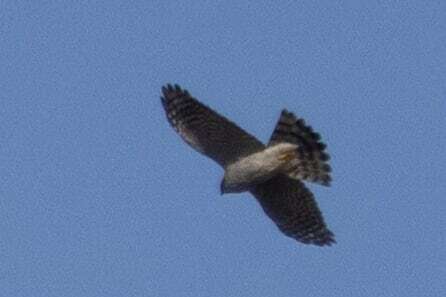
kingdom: Animalia
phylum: Chordata
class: Aves
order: Accipitriformes
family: Accipitridae
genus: Accipiter
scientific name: Accipiter nisus
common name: Eurasian sparrowhawk
